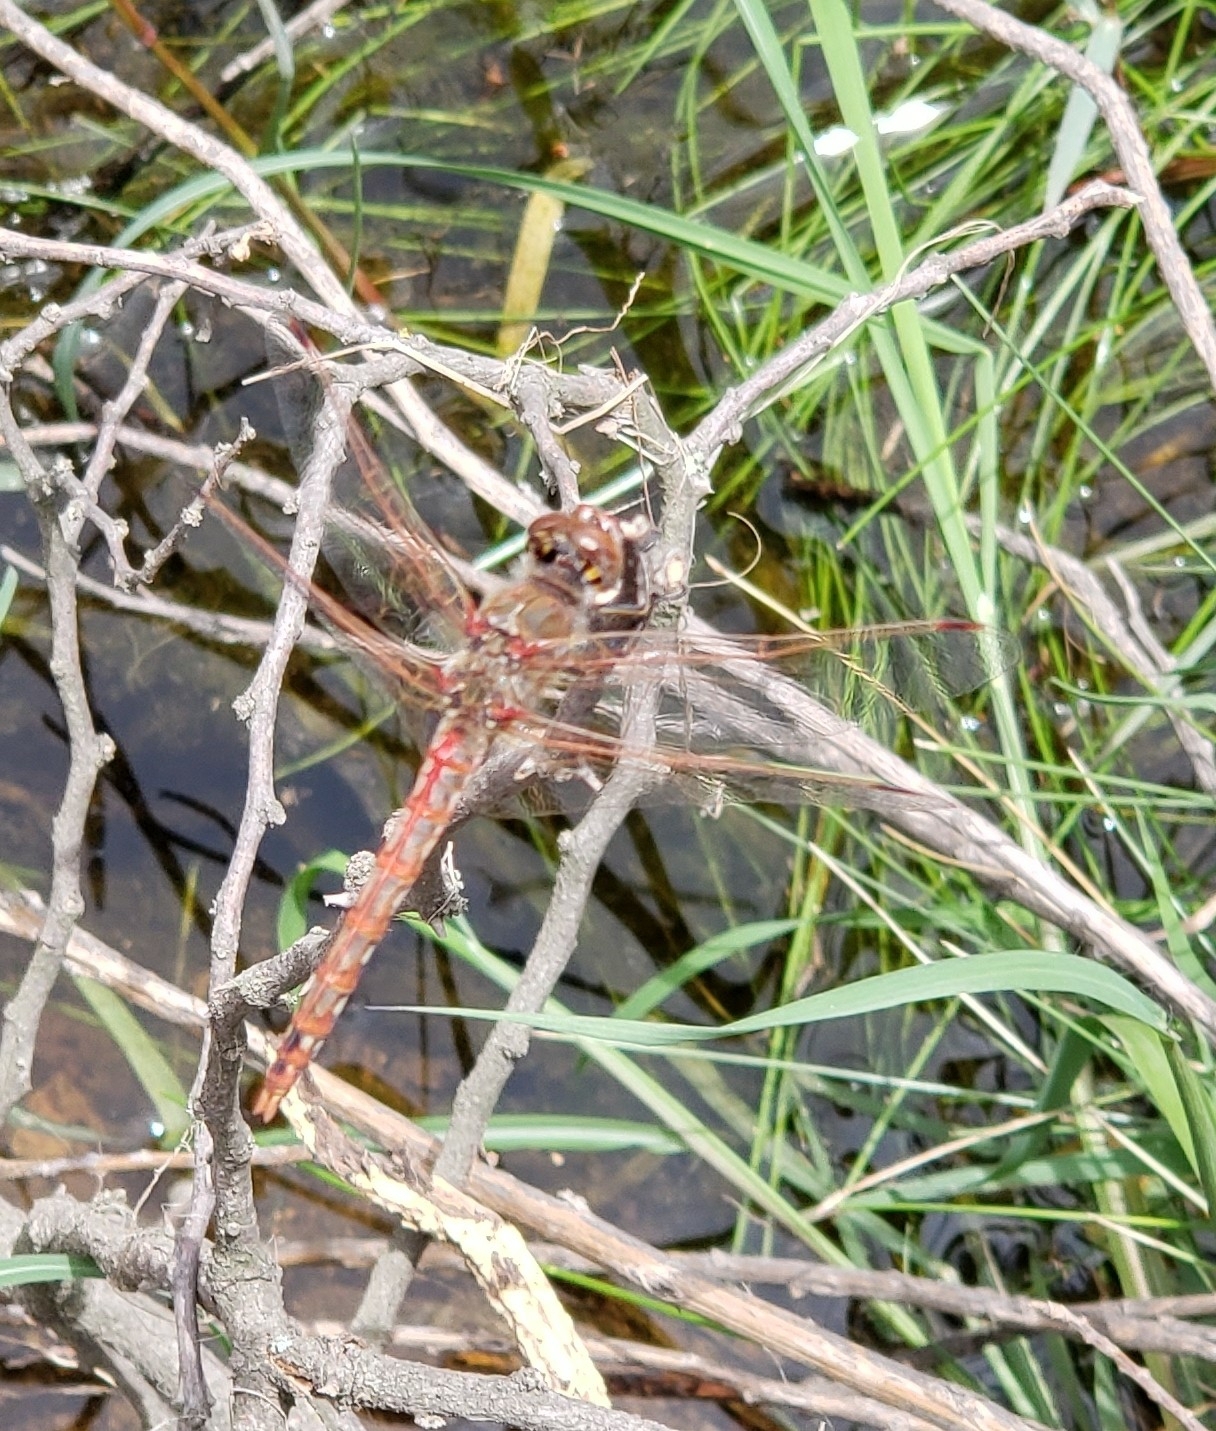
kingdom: Animalia
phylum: Arthropoda
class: Insecta
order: Odonata
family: Libellulidae
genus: Sympetrum
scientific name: Sympetrum corruptum
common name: Variegated meadowhawk
